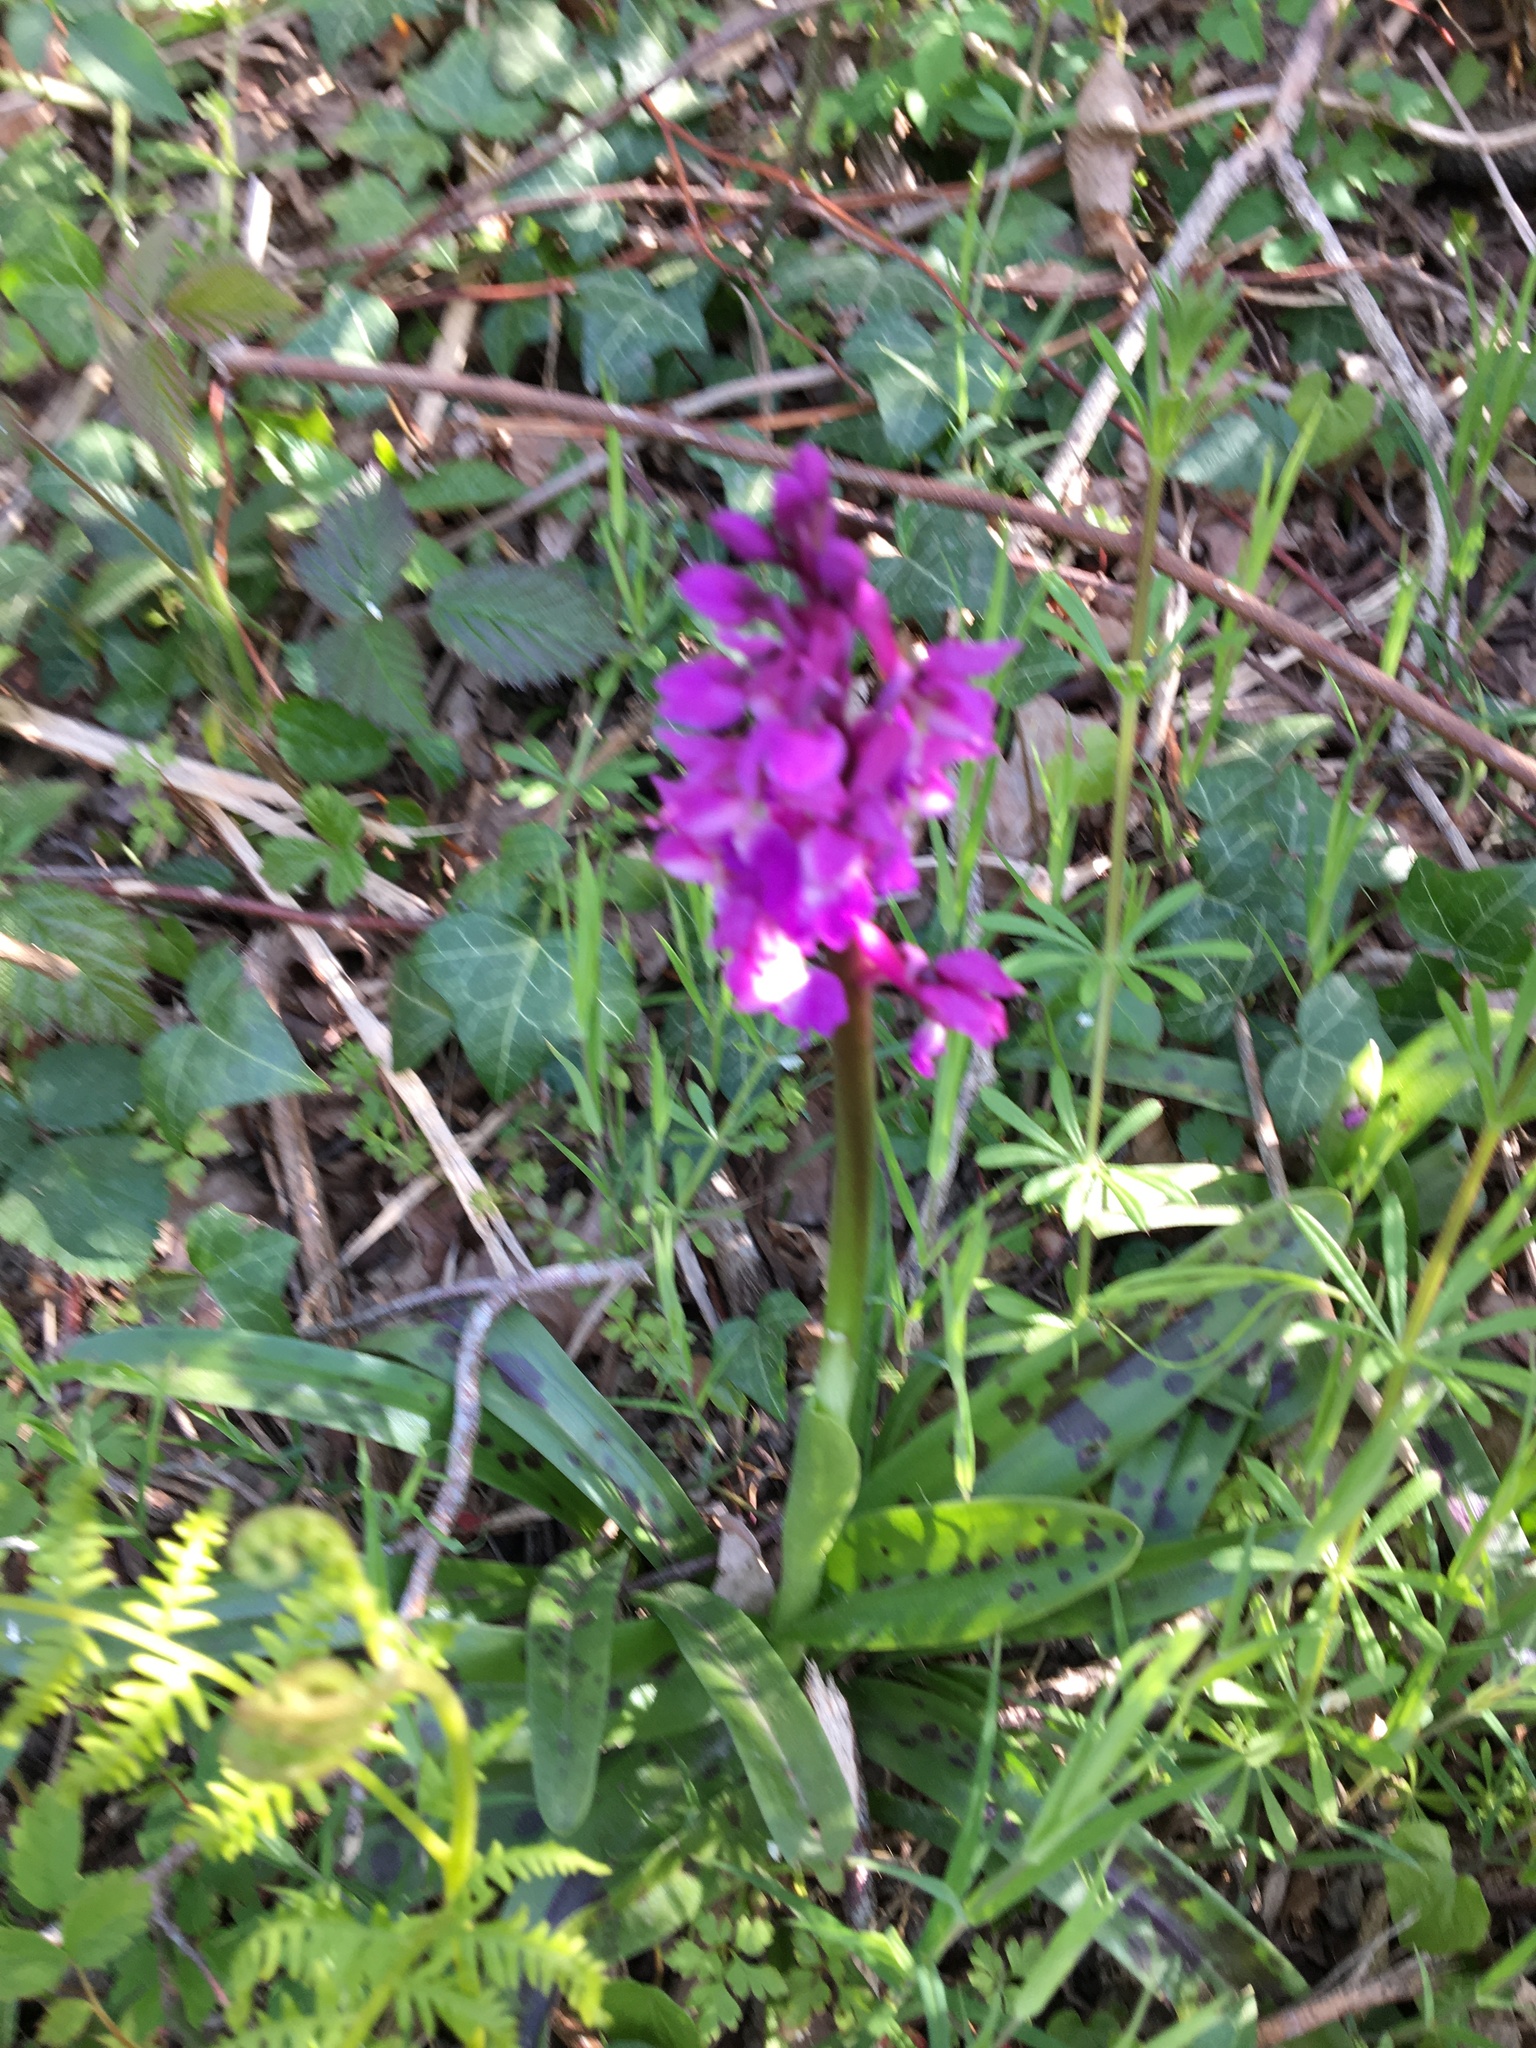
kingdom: Plantae
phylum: Tracheophyta
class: Liliopsida
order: Asparagales
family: Orchidaceae
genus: Orchis
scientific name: Orchis mascula
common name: Early-purple orchid
